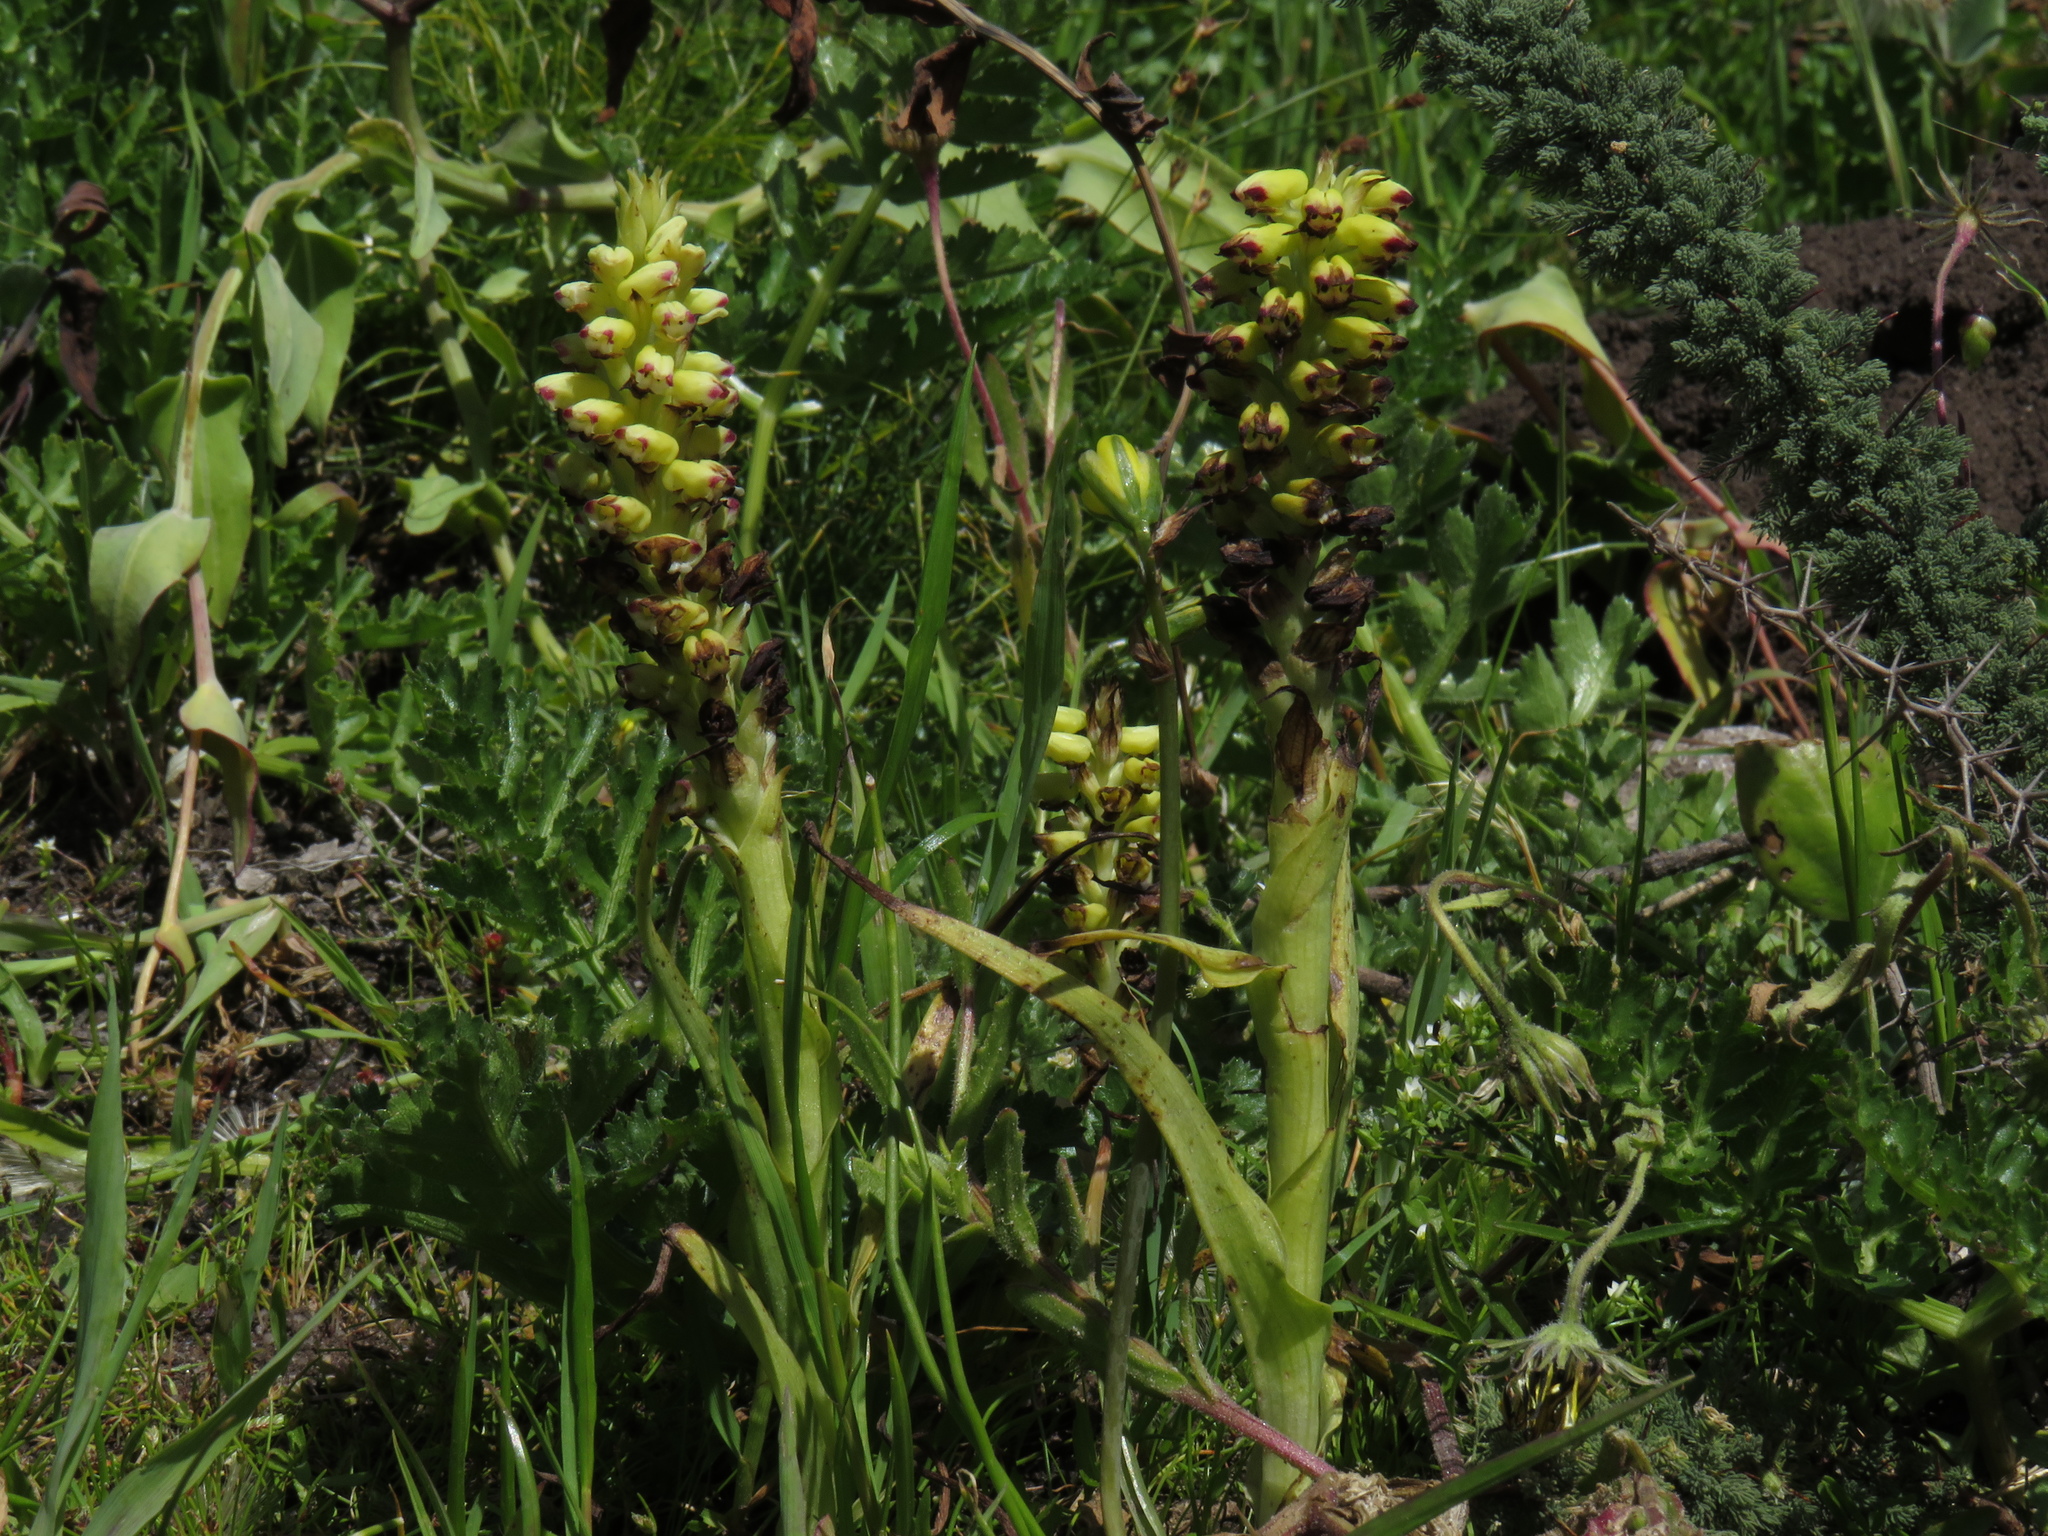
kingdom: Plantae
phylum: Tracheophyta
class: Liliopsida
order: Asparagales
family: Orchidaceae
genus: Corycium
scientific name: Corycium orobanchoides
